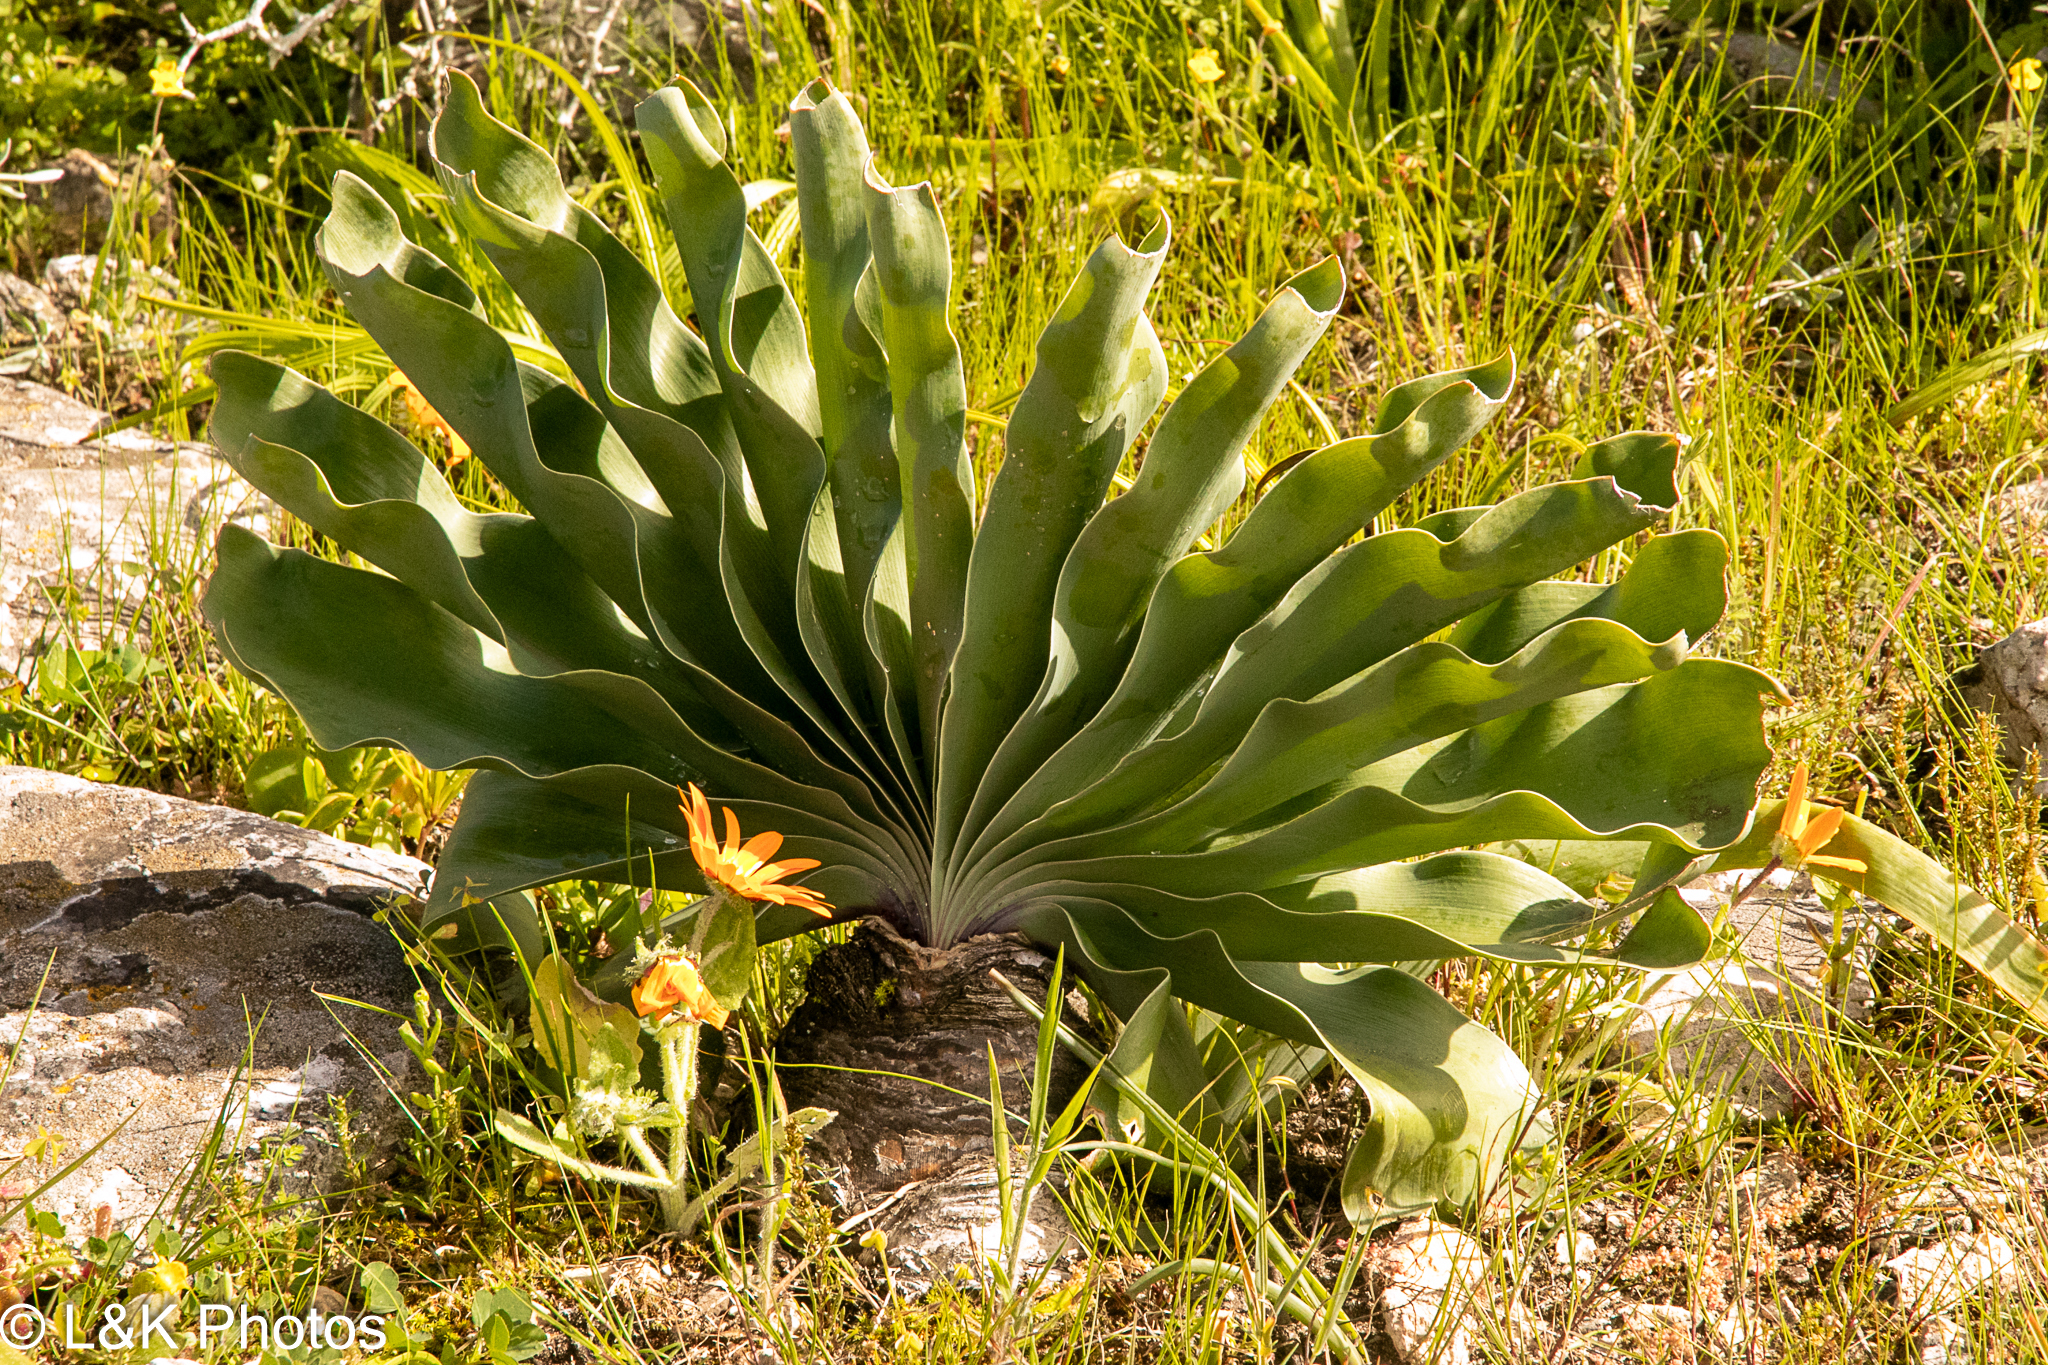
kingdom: Plantae
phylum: Tracheophyta
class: Liliopsida
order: Asparagales
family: Amaryllidaceae
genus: Boophone
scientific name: Boophone haemanthoides
